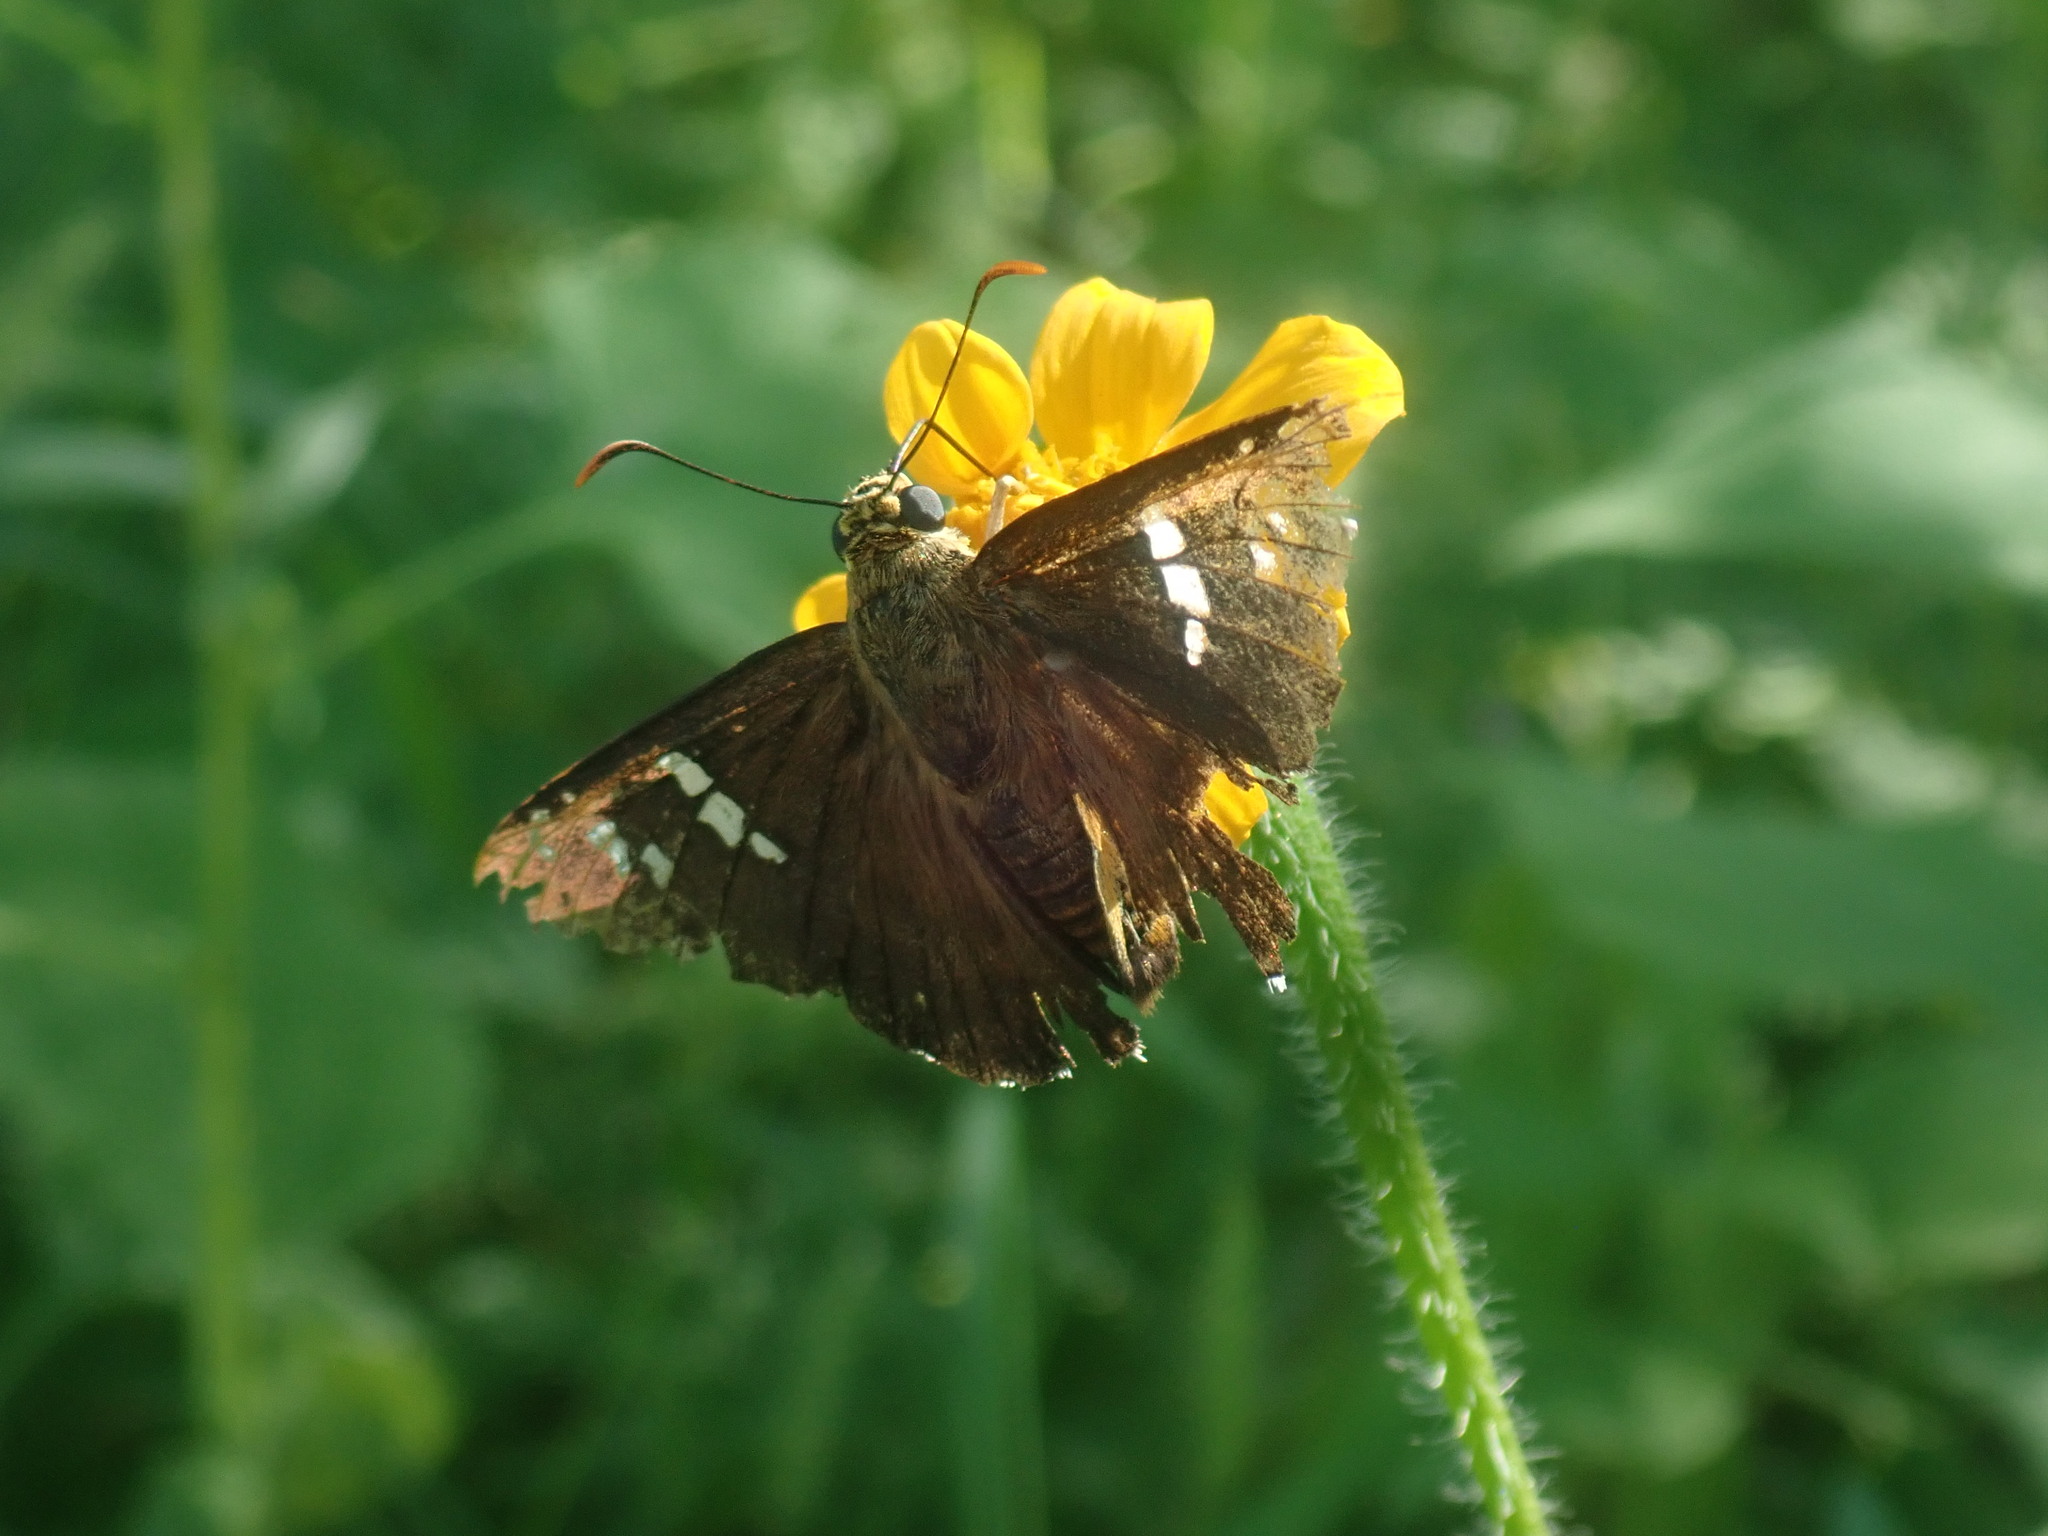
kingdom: Animalia
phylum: Arthropoda
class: Insecta
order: Lepidoptera
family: Hesperiidae
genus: Pyrrhopyge
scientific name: Pyrrhopyge araxes
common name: Dull firetip
